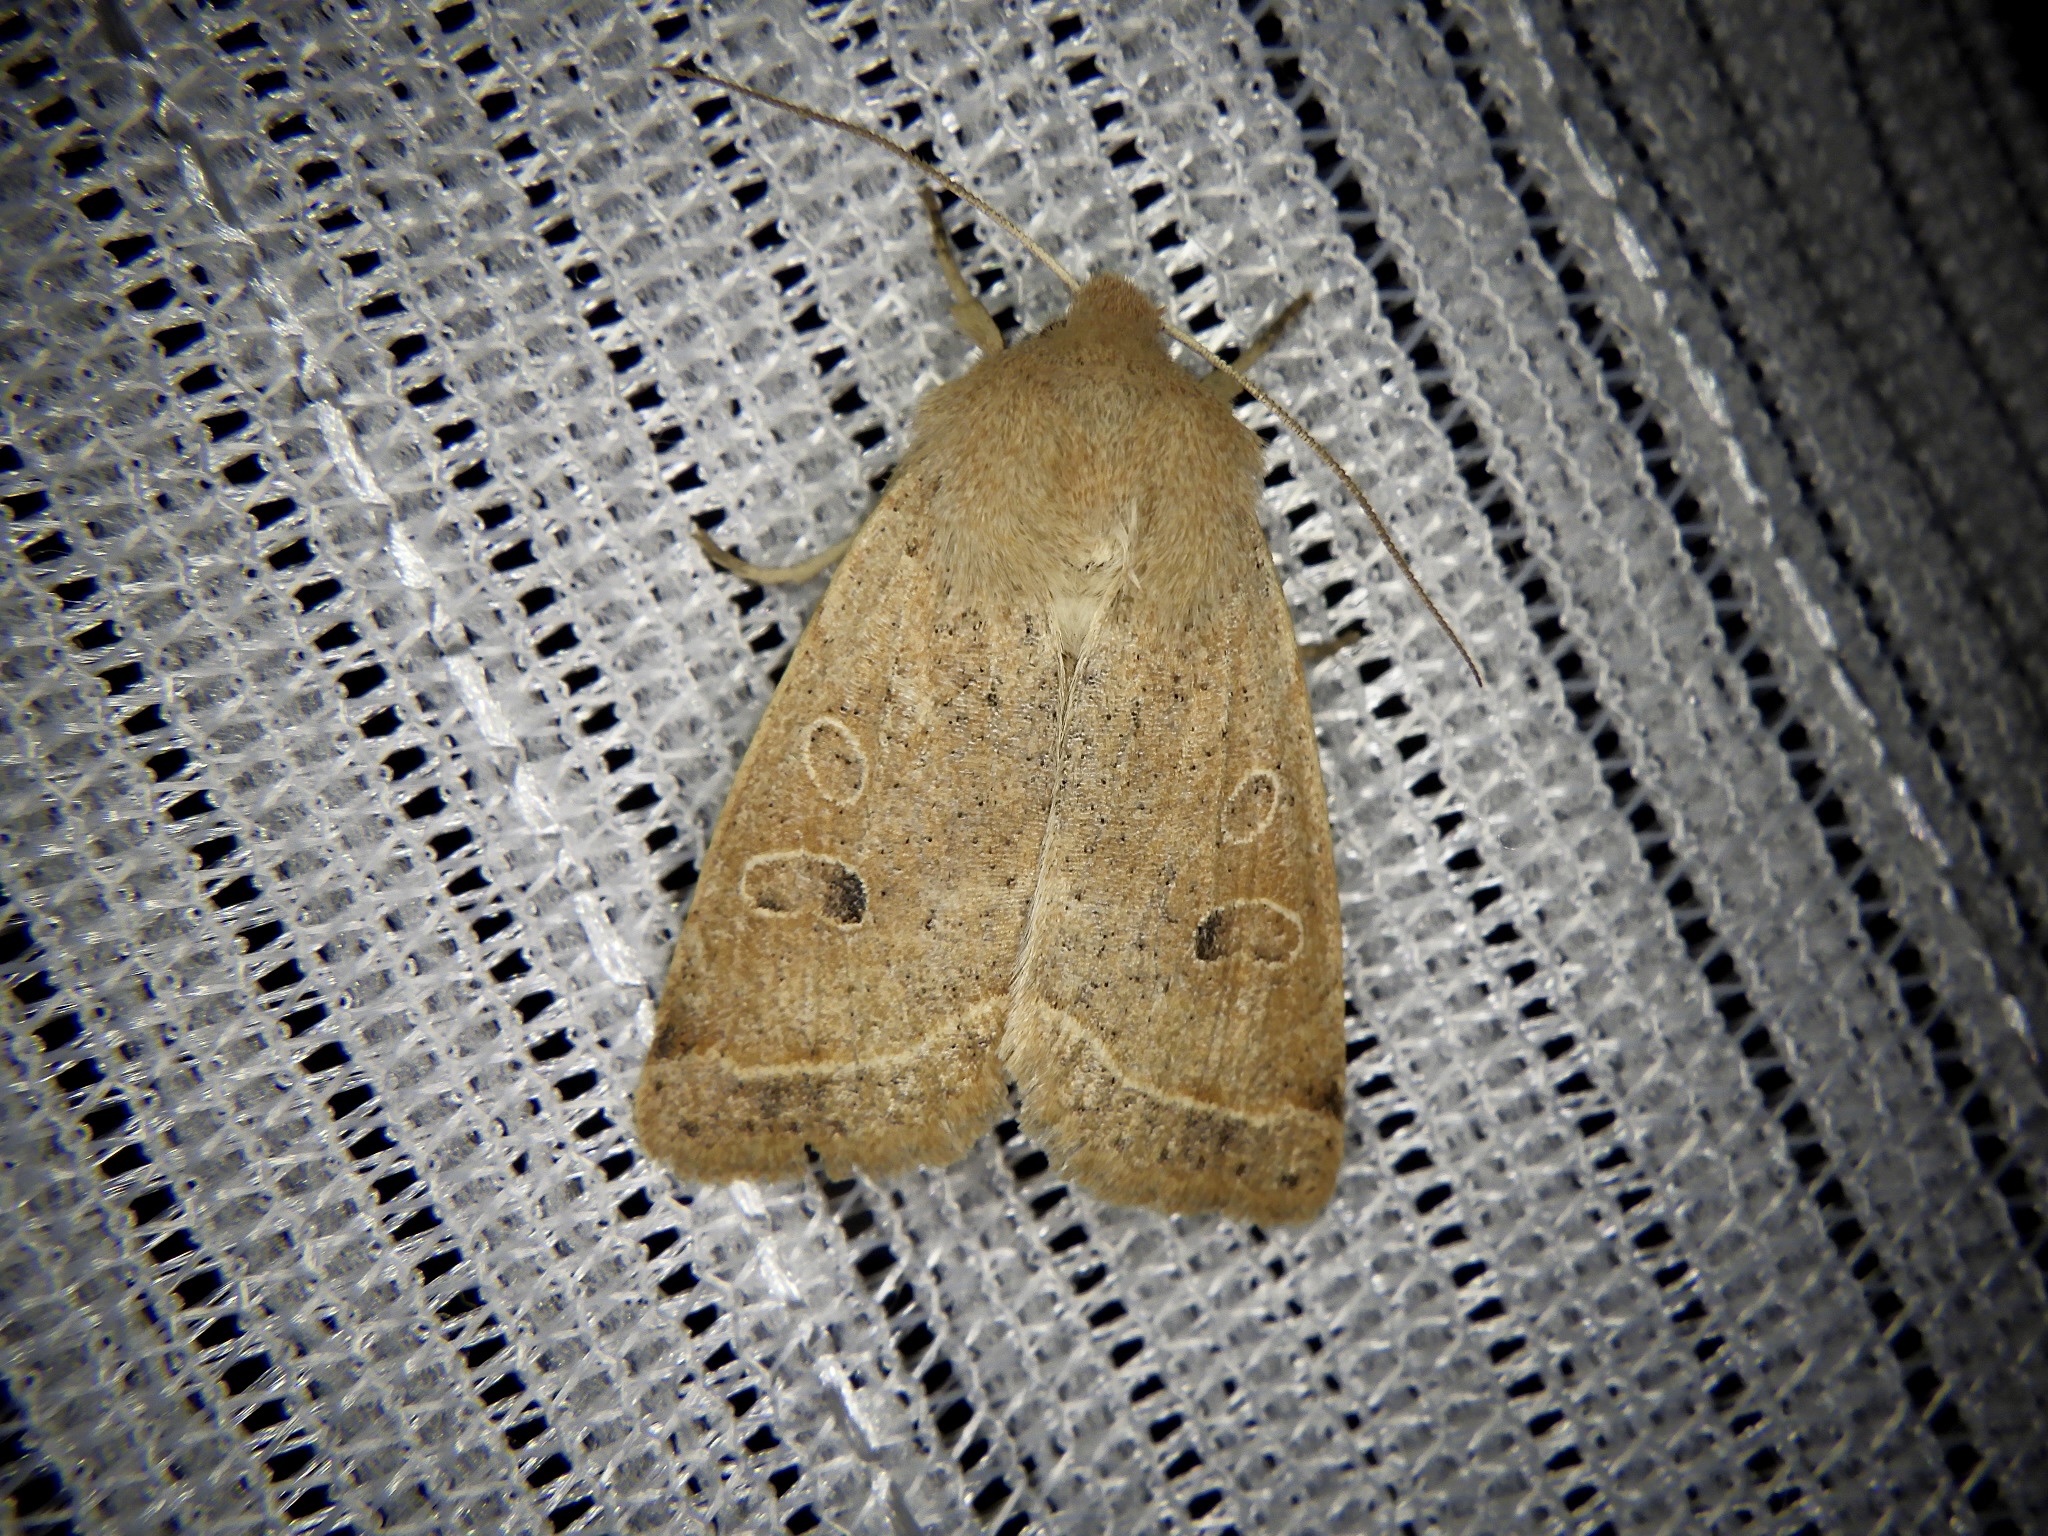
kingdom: Animalia
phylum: Arthropoda
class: Insecta
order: Lepidoptera
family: Noctuidae
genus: Anorthoa
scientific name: Anorthoa angustipennis
